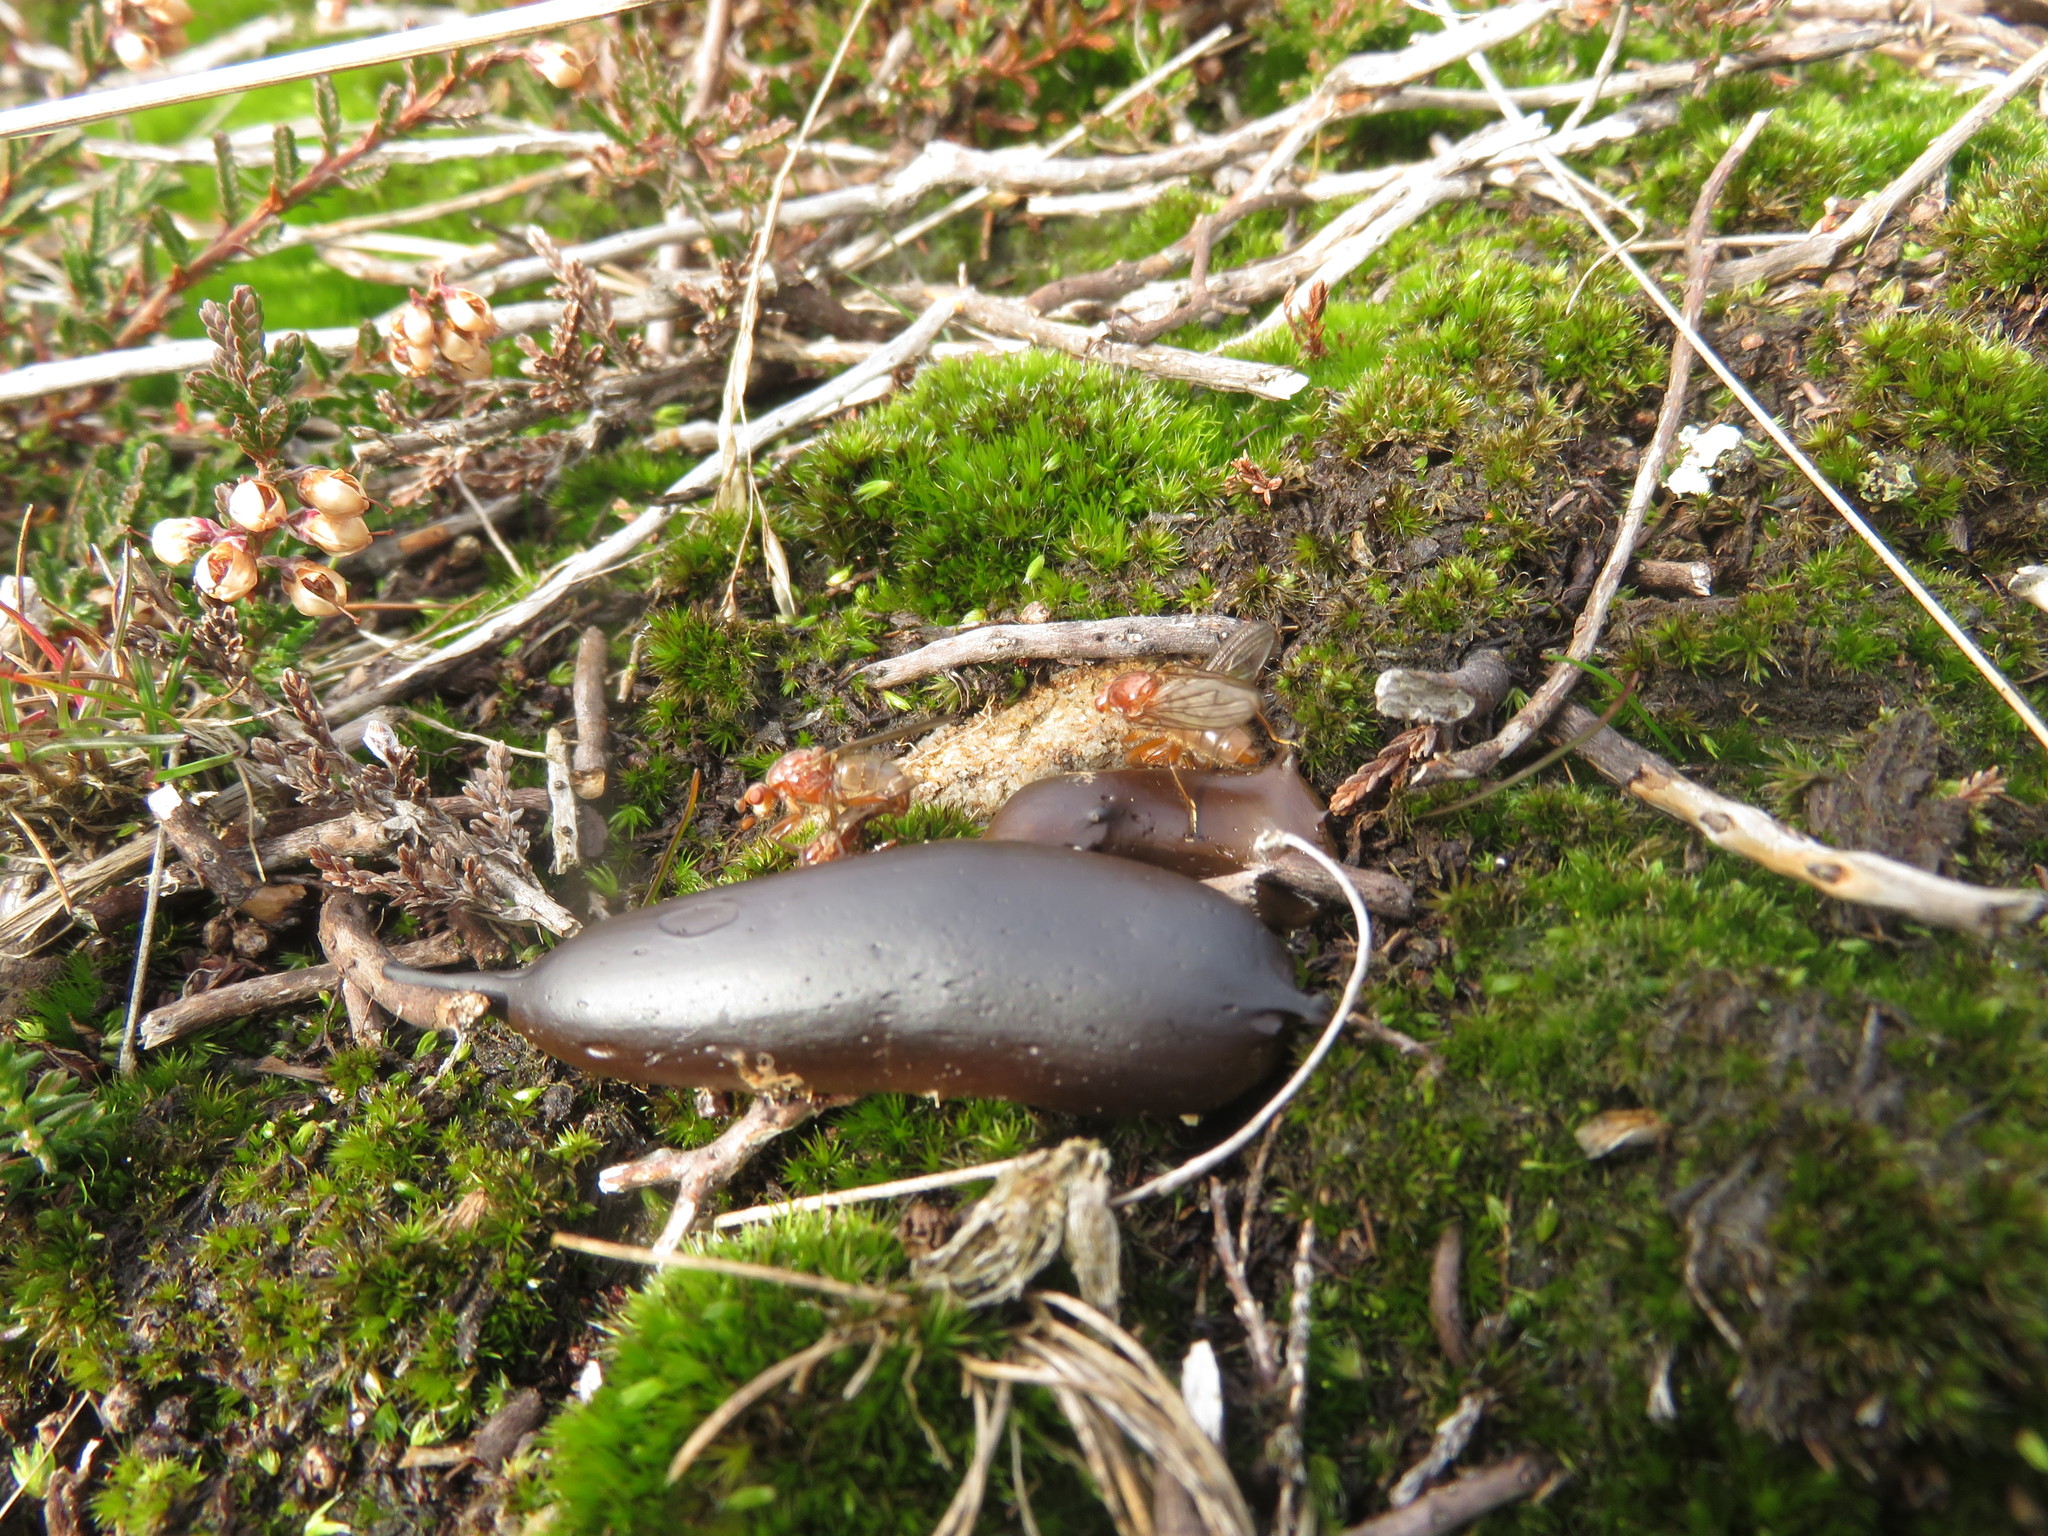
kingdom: Animalia
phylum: Arthropoda
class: Insecta
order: Diptera
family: Scathophagidae
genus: Scathophaga
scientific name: Scathophaga stercoraria
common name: Yellow dung fly
